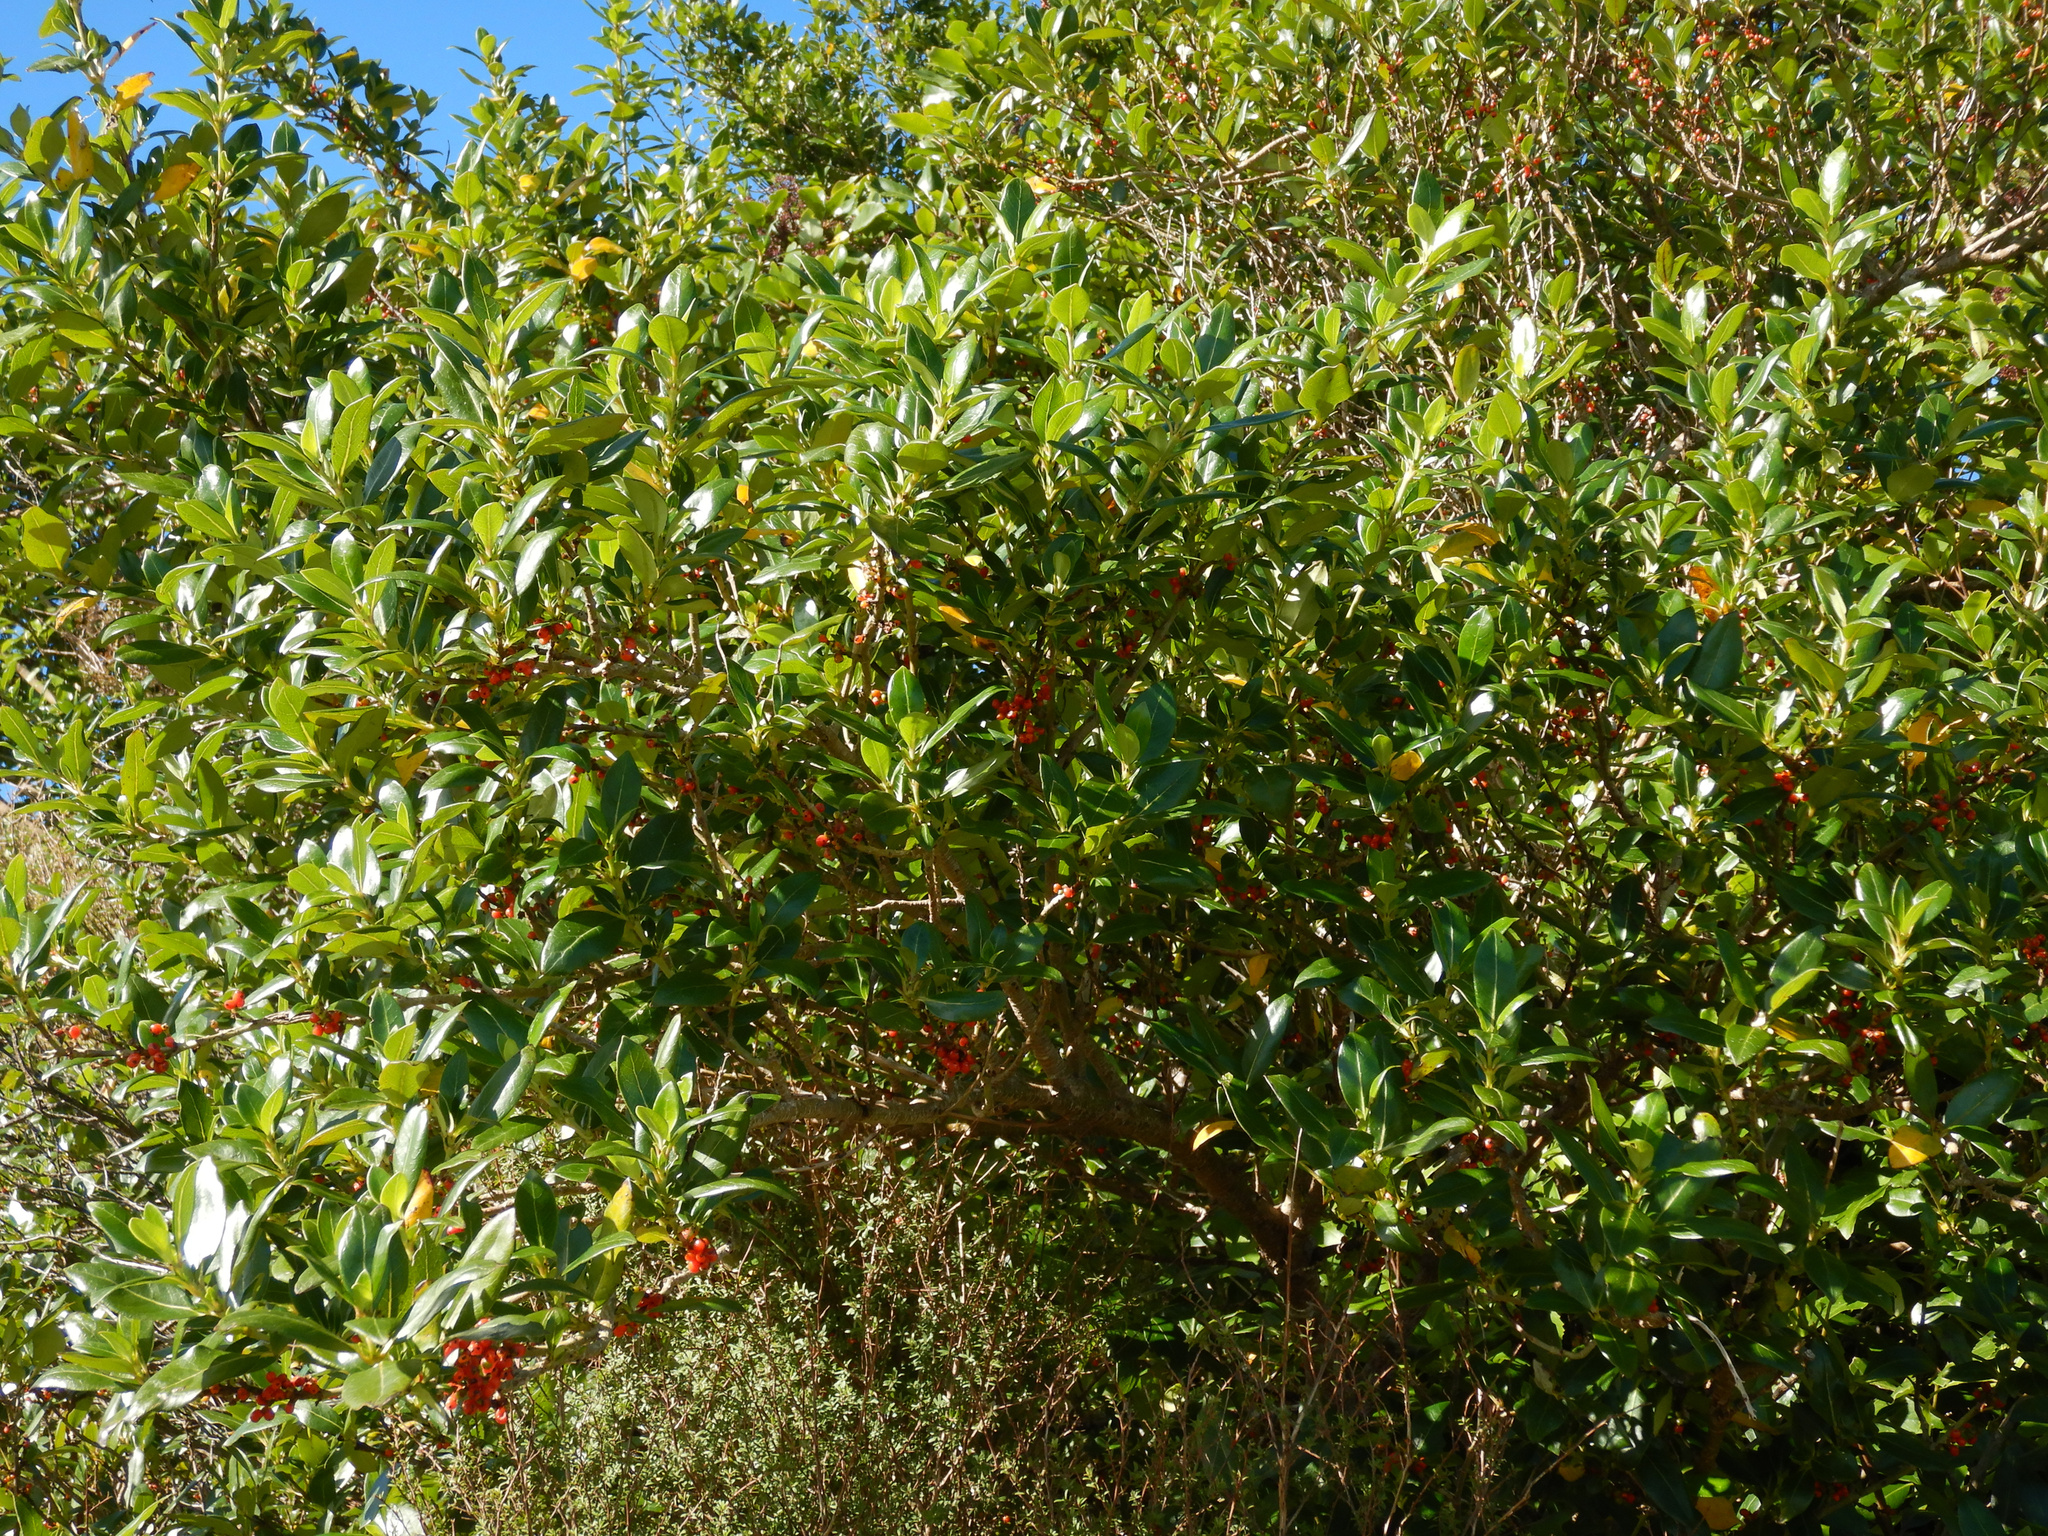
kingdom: Plantae
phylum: Tracheophyta
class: Magnoliopsida
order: Gentianales
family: Rubiaceae
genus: Coprosma
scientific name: Coprosma robusta
